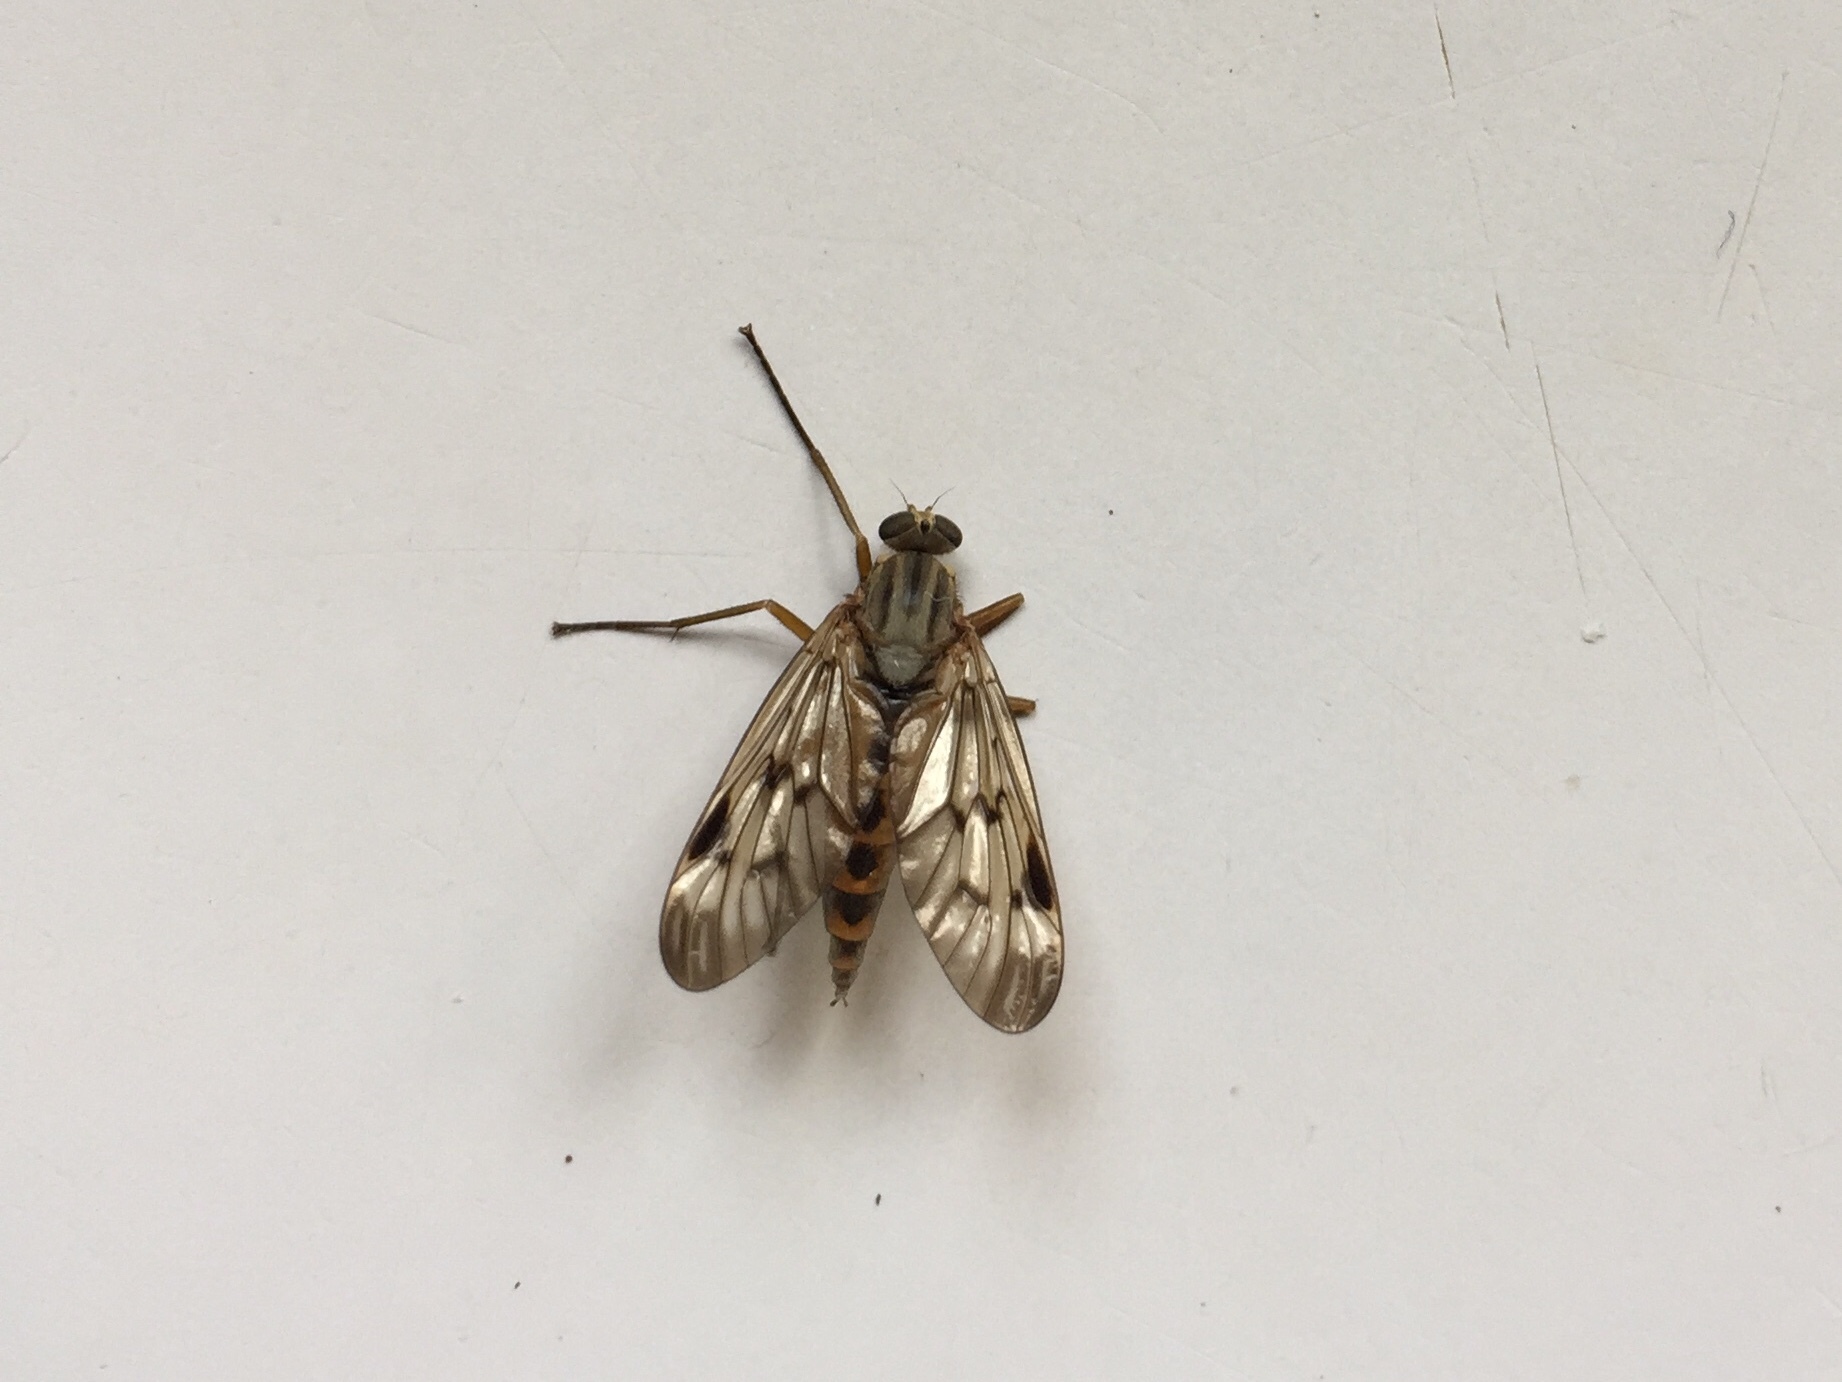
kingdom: Animalia
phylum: Arthropoda
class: Insecta
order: Diptera
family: Rhagionidae
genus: Rhagio
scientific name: Rhagio scolopacea
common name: Downlooker snipefly
